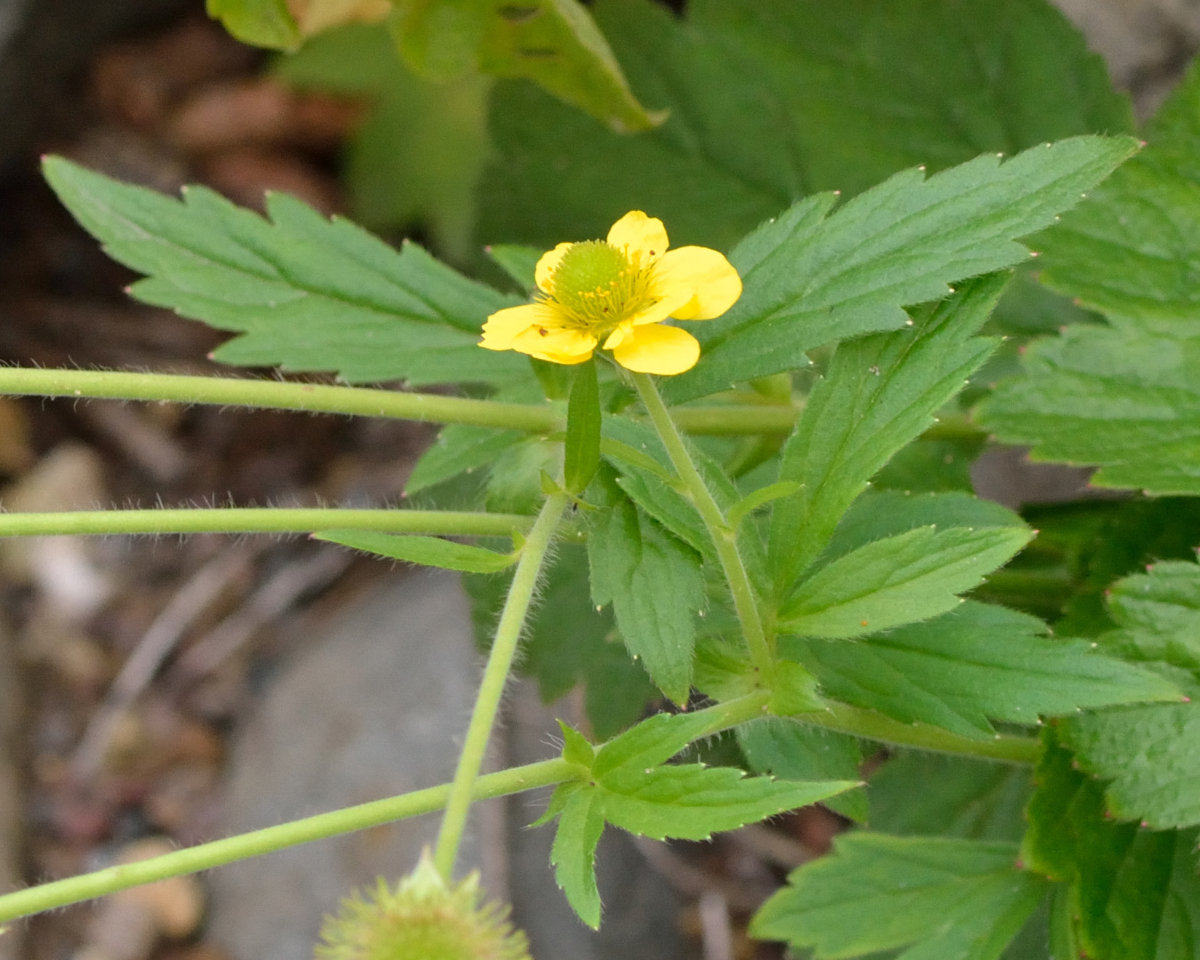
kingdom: Plantae
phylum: Tracheophyta
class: Magnoliopsida
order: Rosales
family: Rosaceae
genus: Geum
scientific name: Geum aleppicum
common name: Yellow avens
